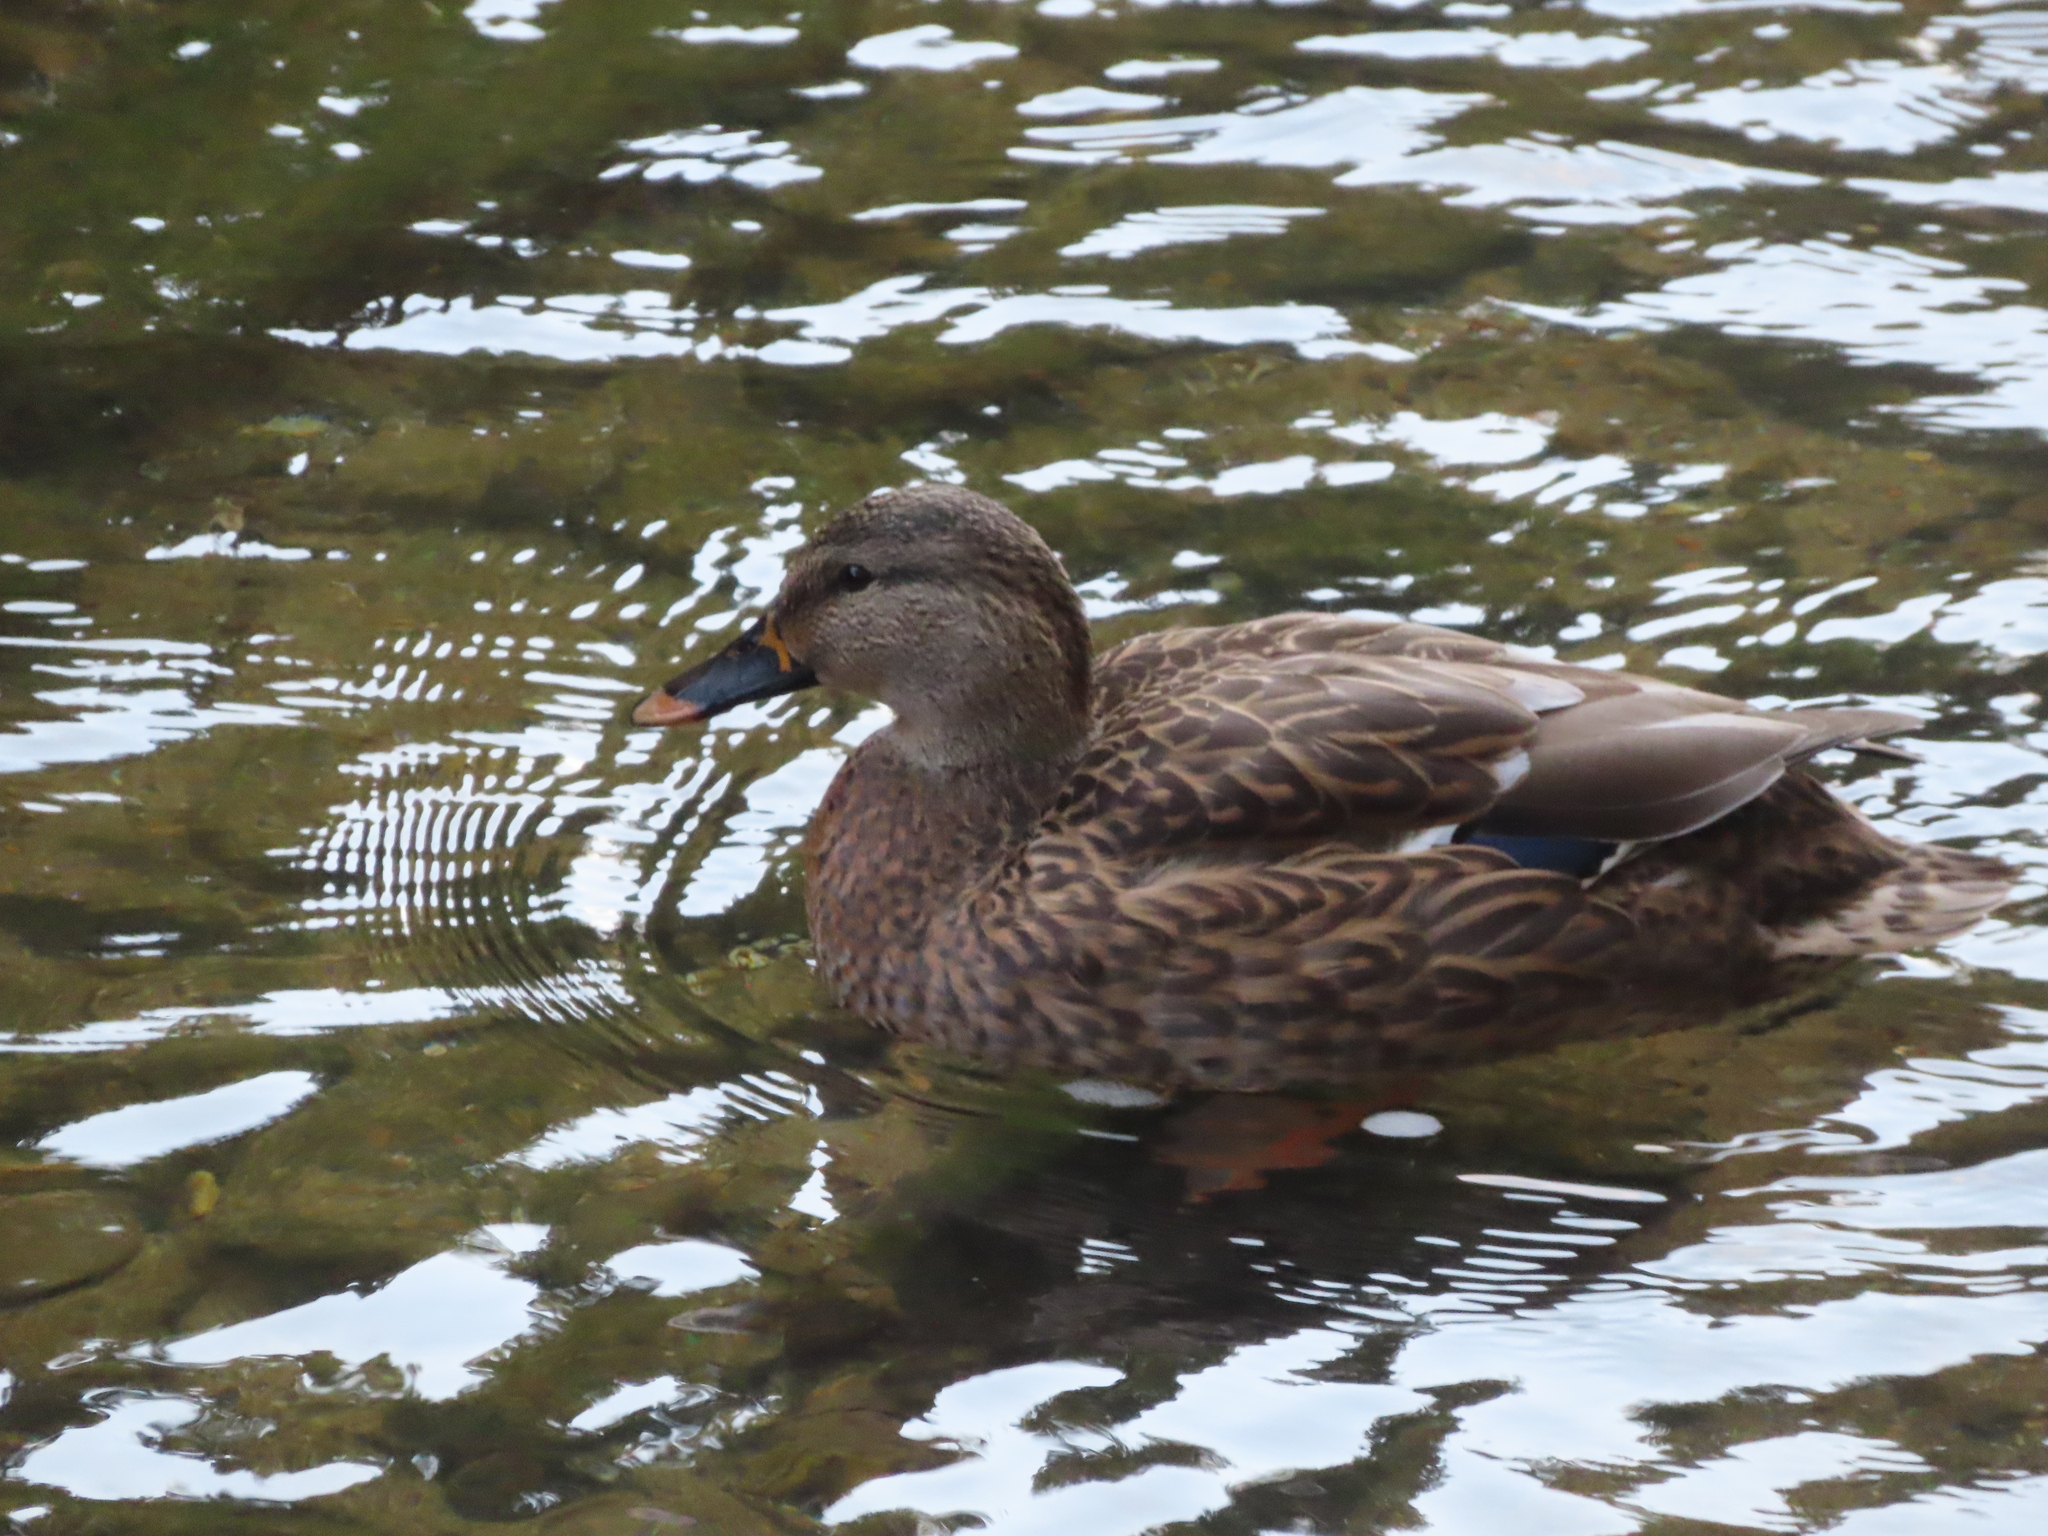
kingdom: Animalia
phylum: Chordata
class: Aves
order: Anseriformes
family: Anatidae
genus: Anas
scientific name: Anas platyrhynchos
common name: Mallard
